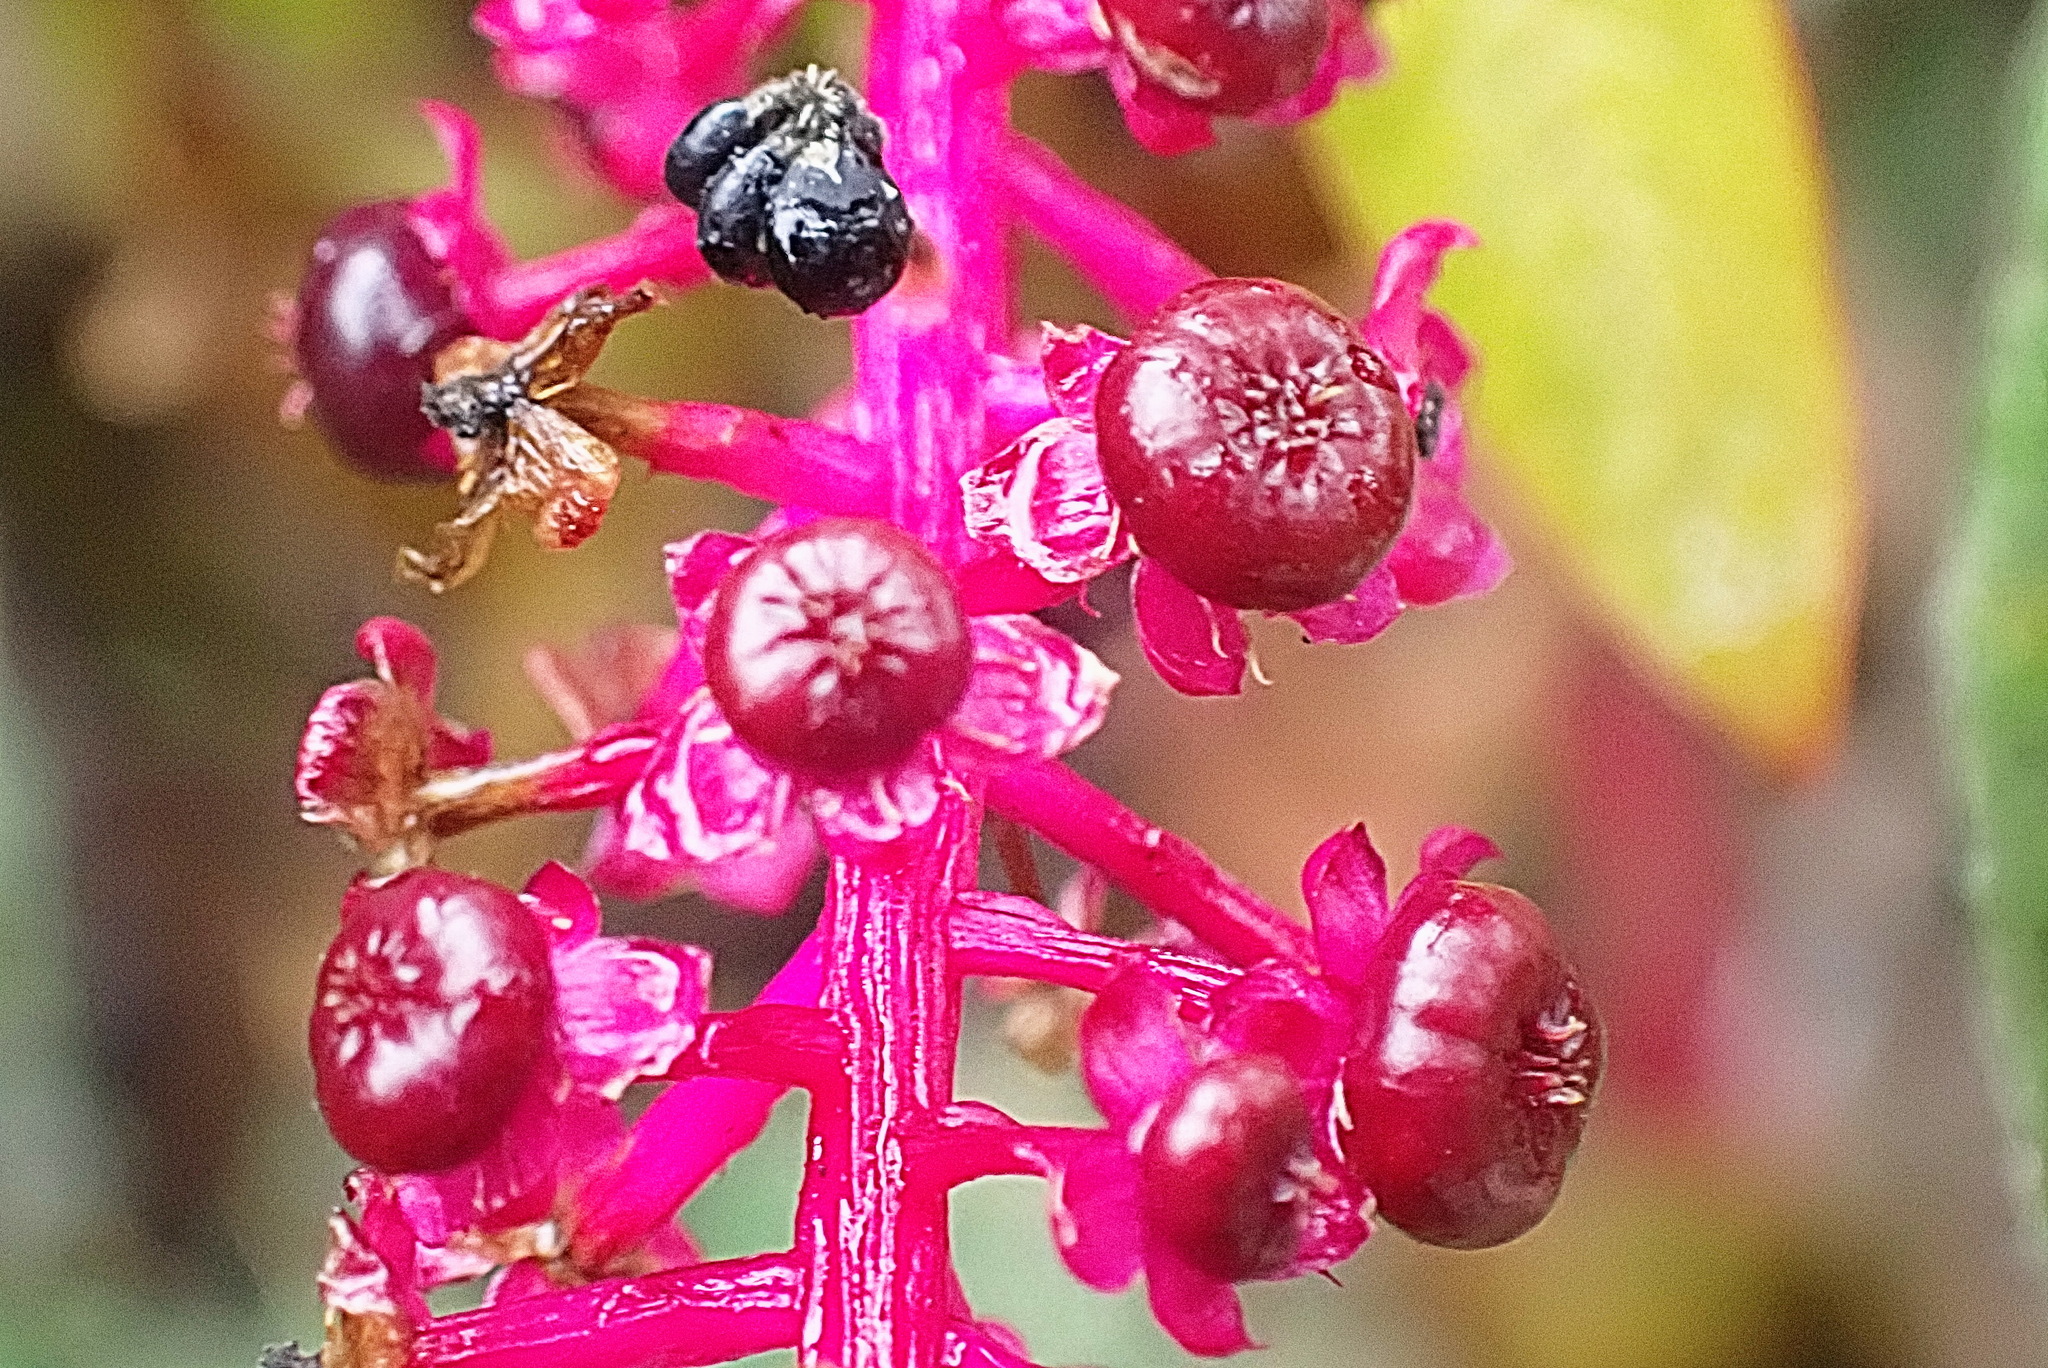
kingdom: Plantae
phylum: Tracheophyta
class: Magnoliopsida
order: Caryophyllales
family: Phytolaccaceae
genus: Phytolacca
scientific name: Phytolacca americana
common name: American pokeweed
